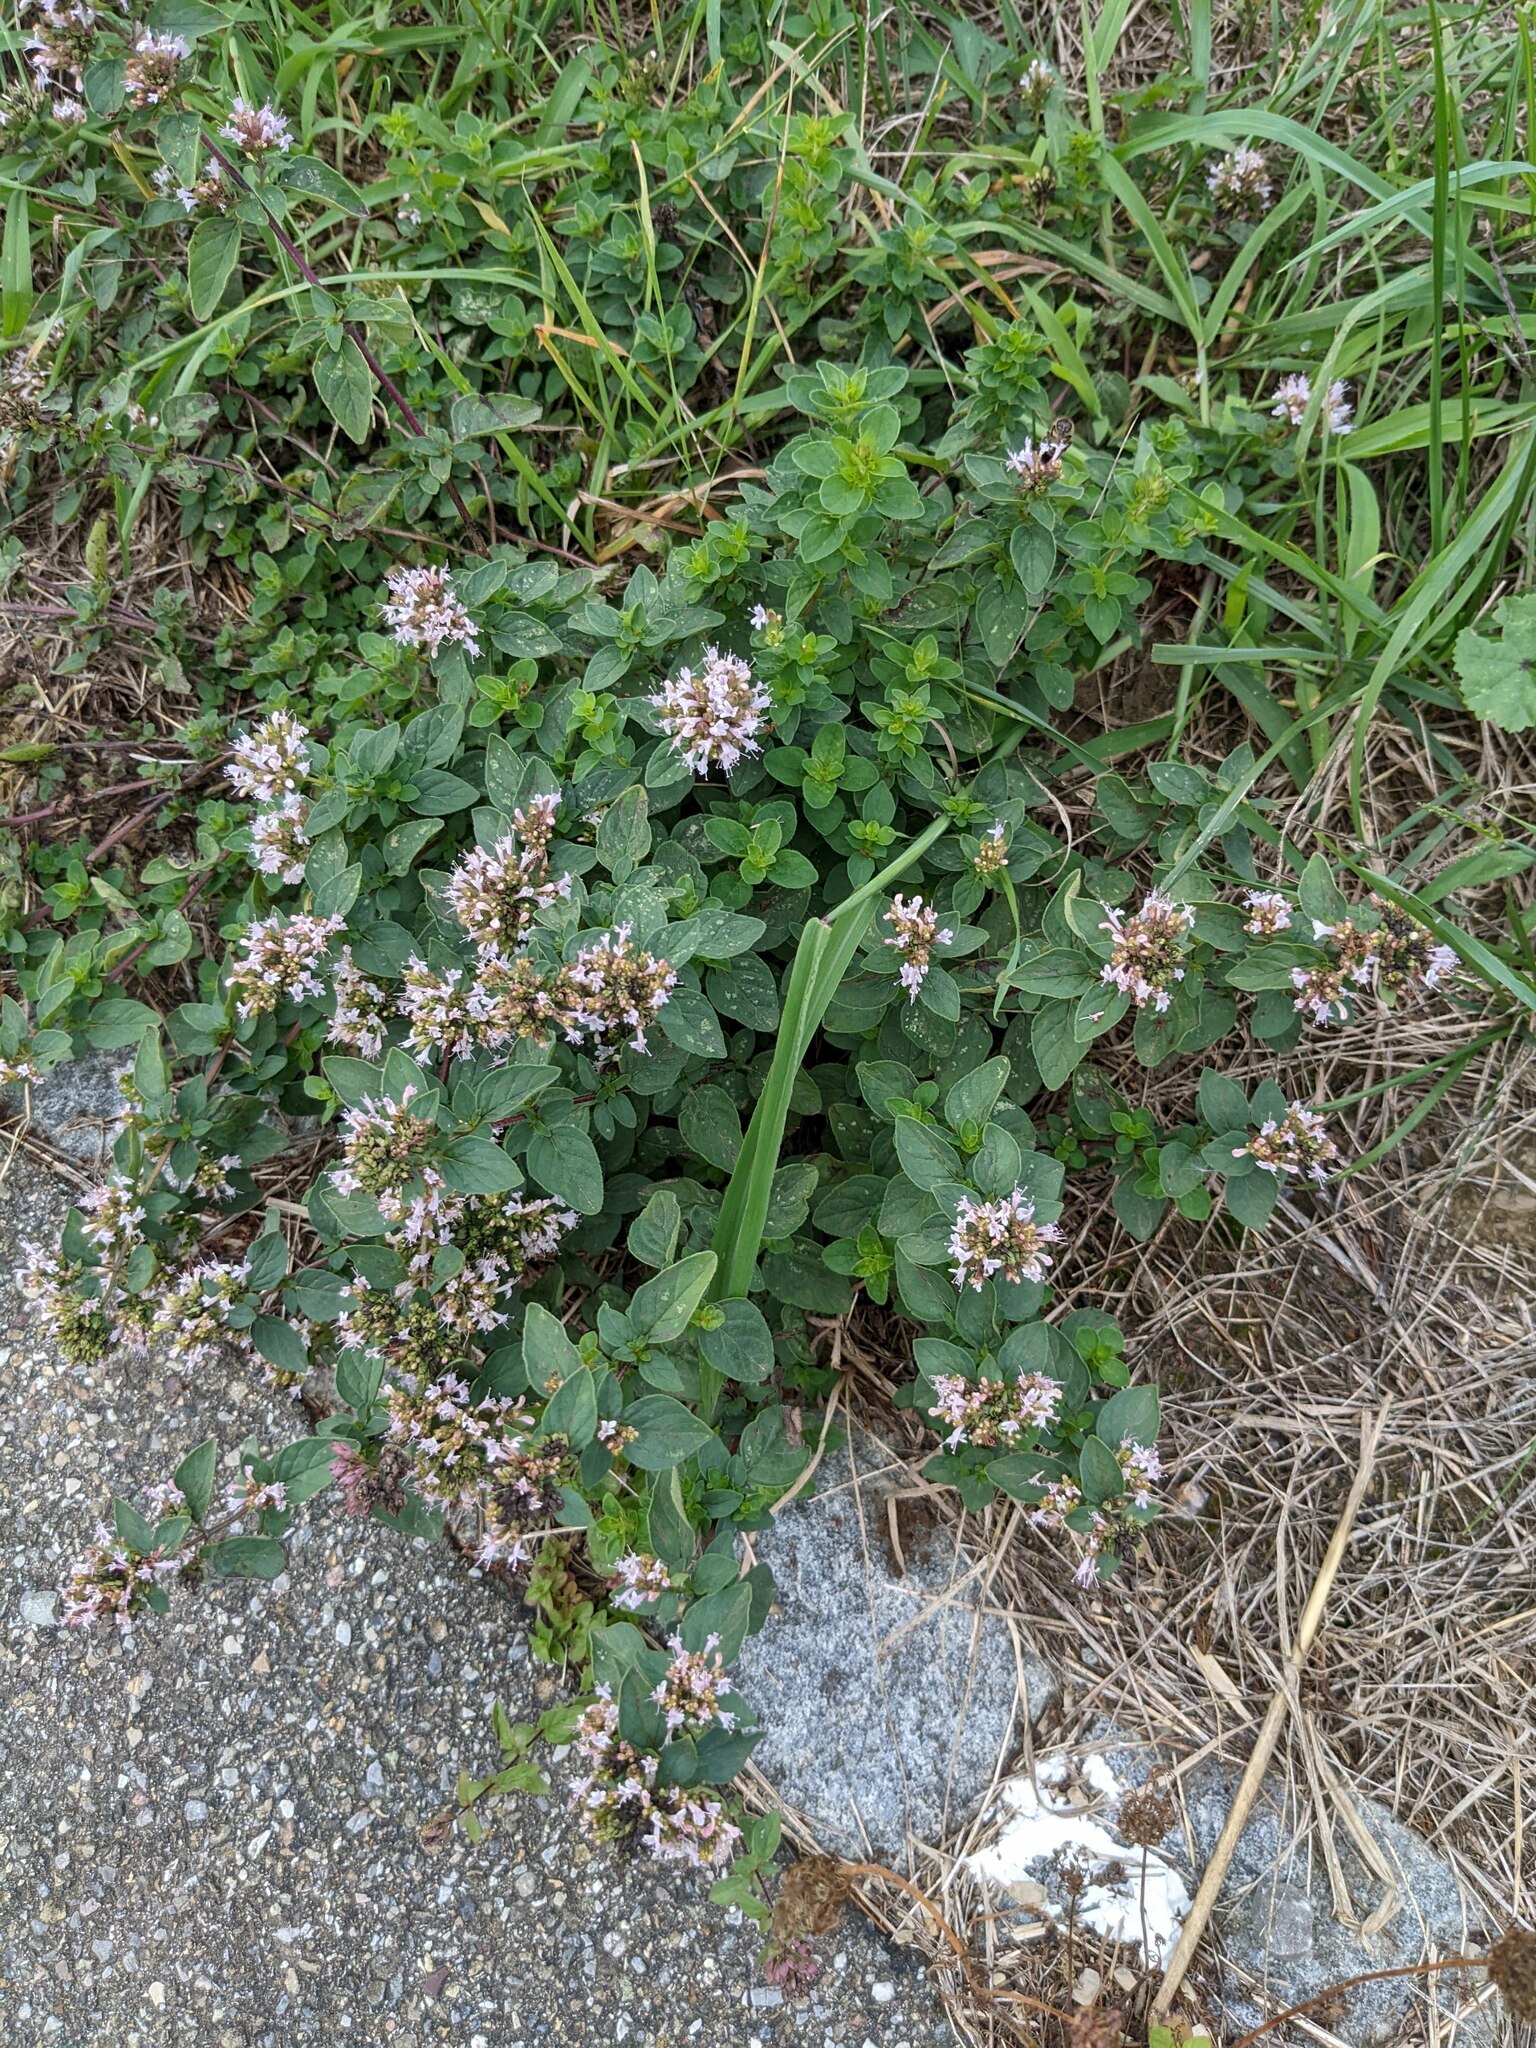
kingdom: Plantae
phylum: Tracheophyta
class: Magnoliopsida
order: Lamiales
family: Lamiaceae
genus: Origanum
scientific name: Origanum vulgare
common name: Wild marjoram
